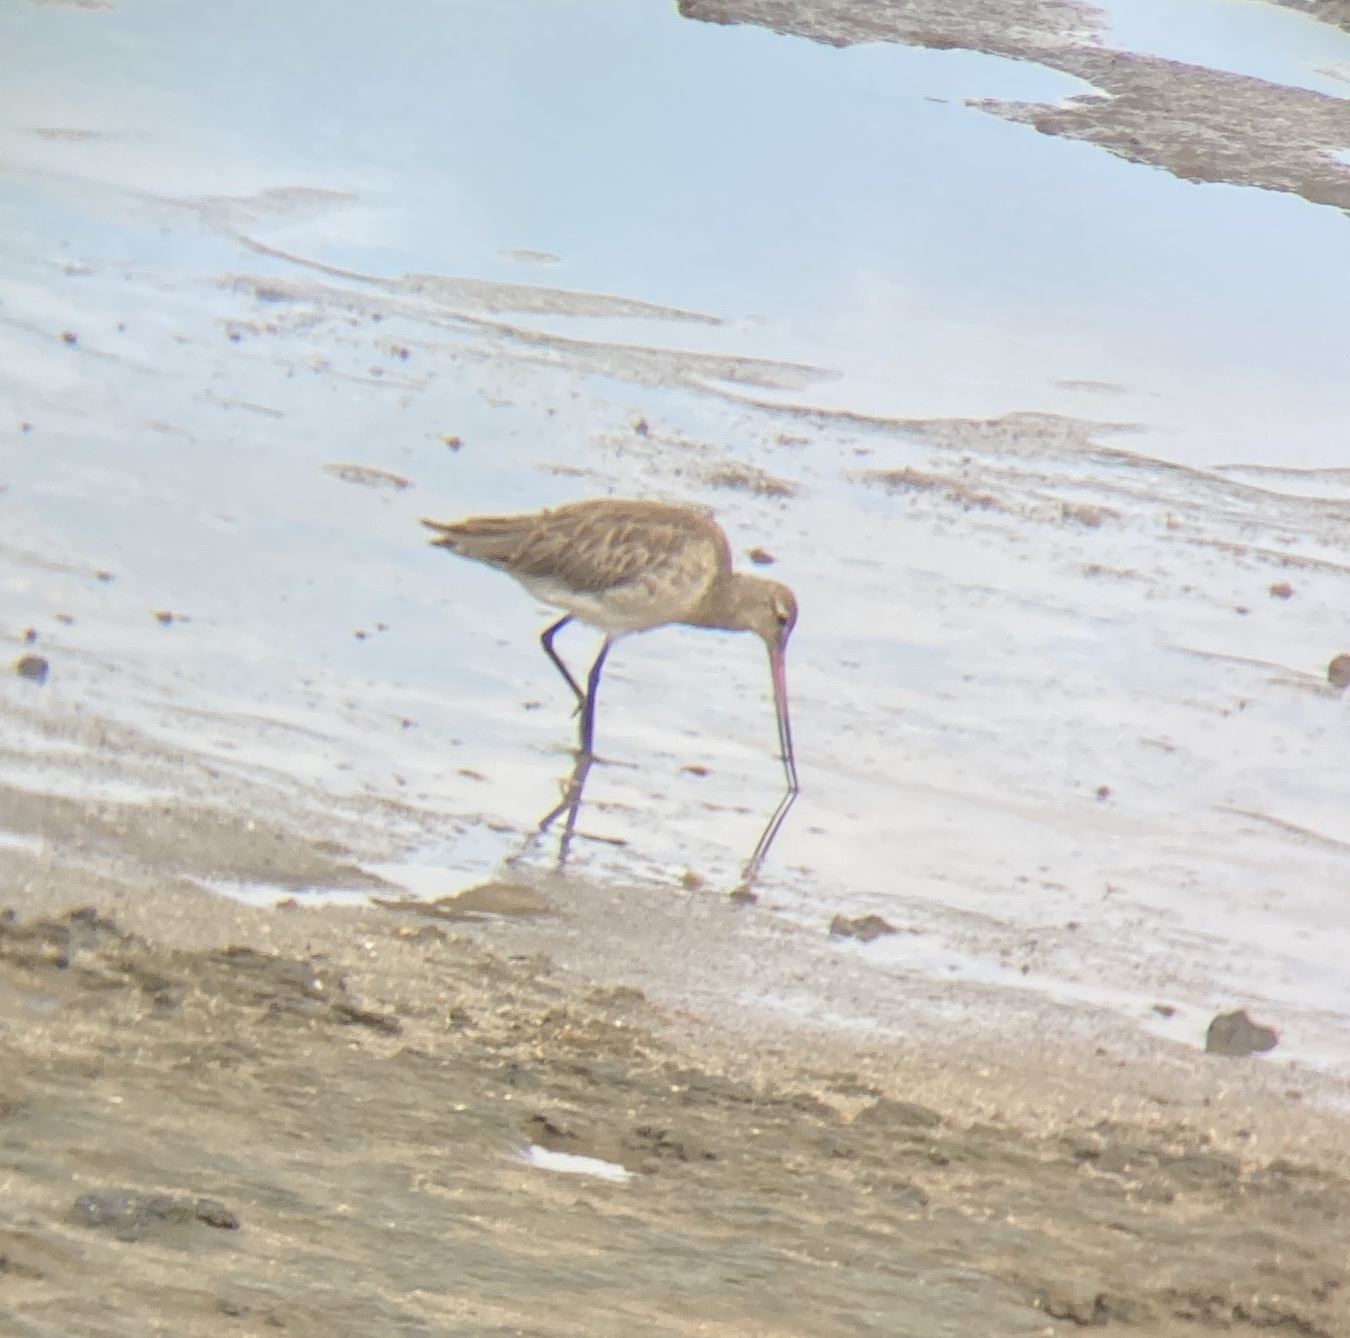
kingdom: Animalia
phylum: Chordata
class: Aves
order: Charadriiformes
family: Scolopacidae
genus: Limosa
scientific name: Limosa lapponica
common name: Bar-tailed godwit
